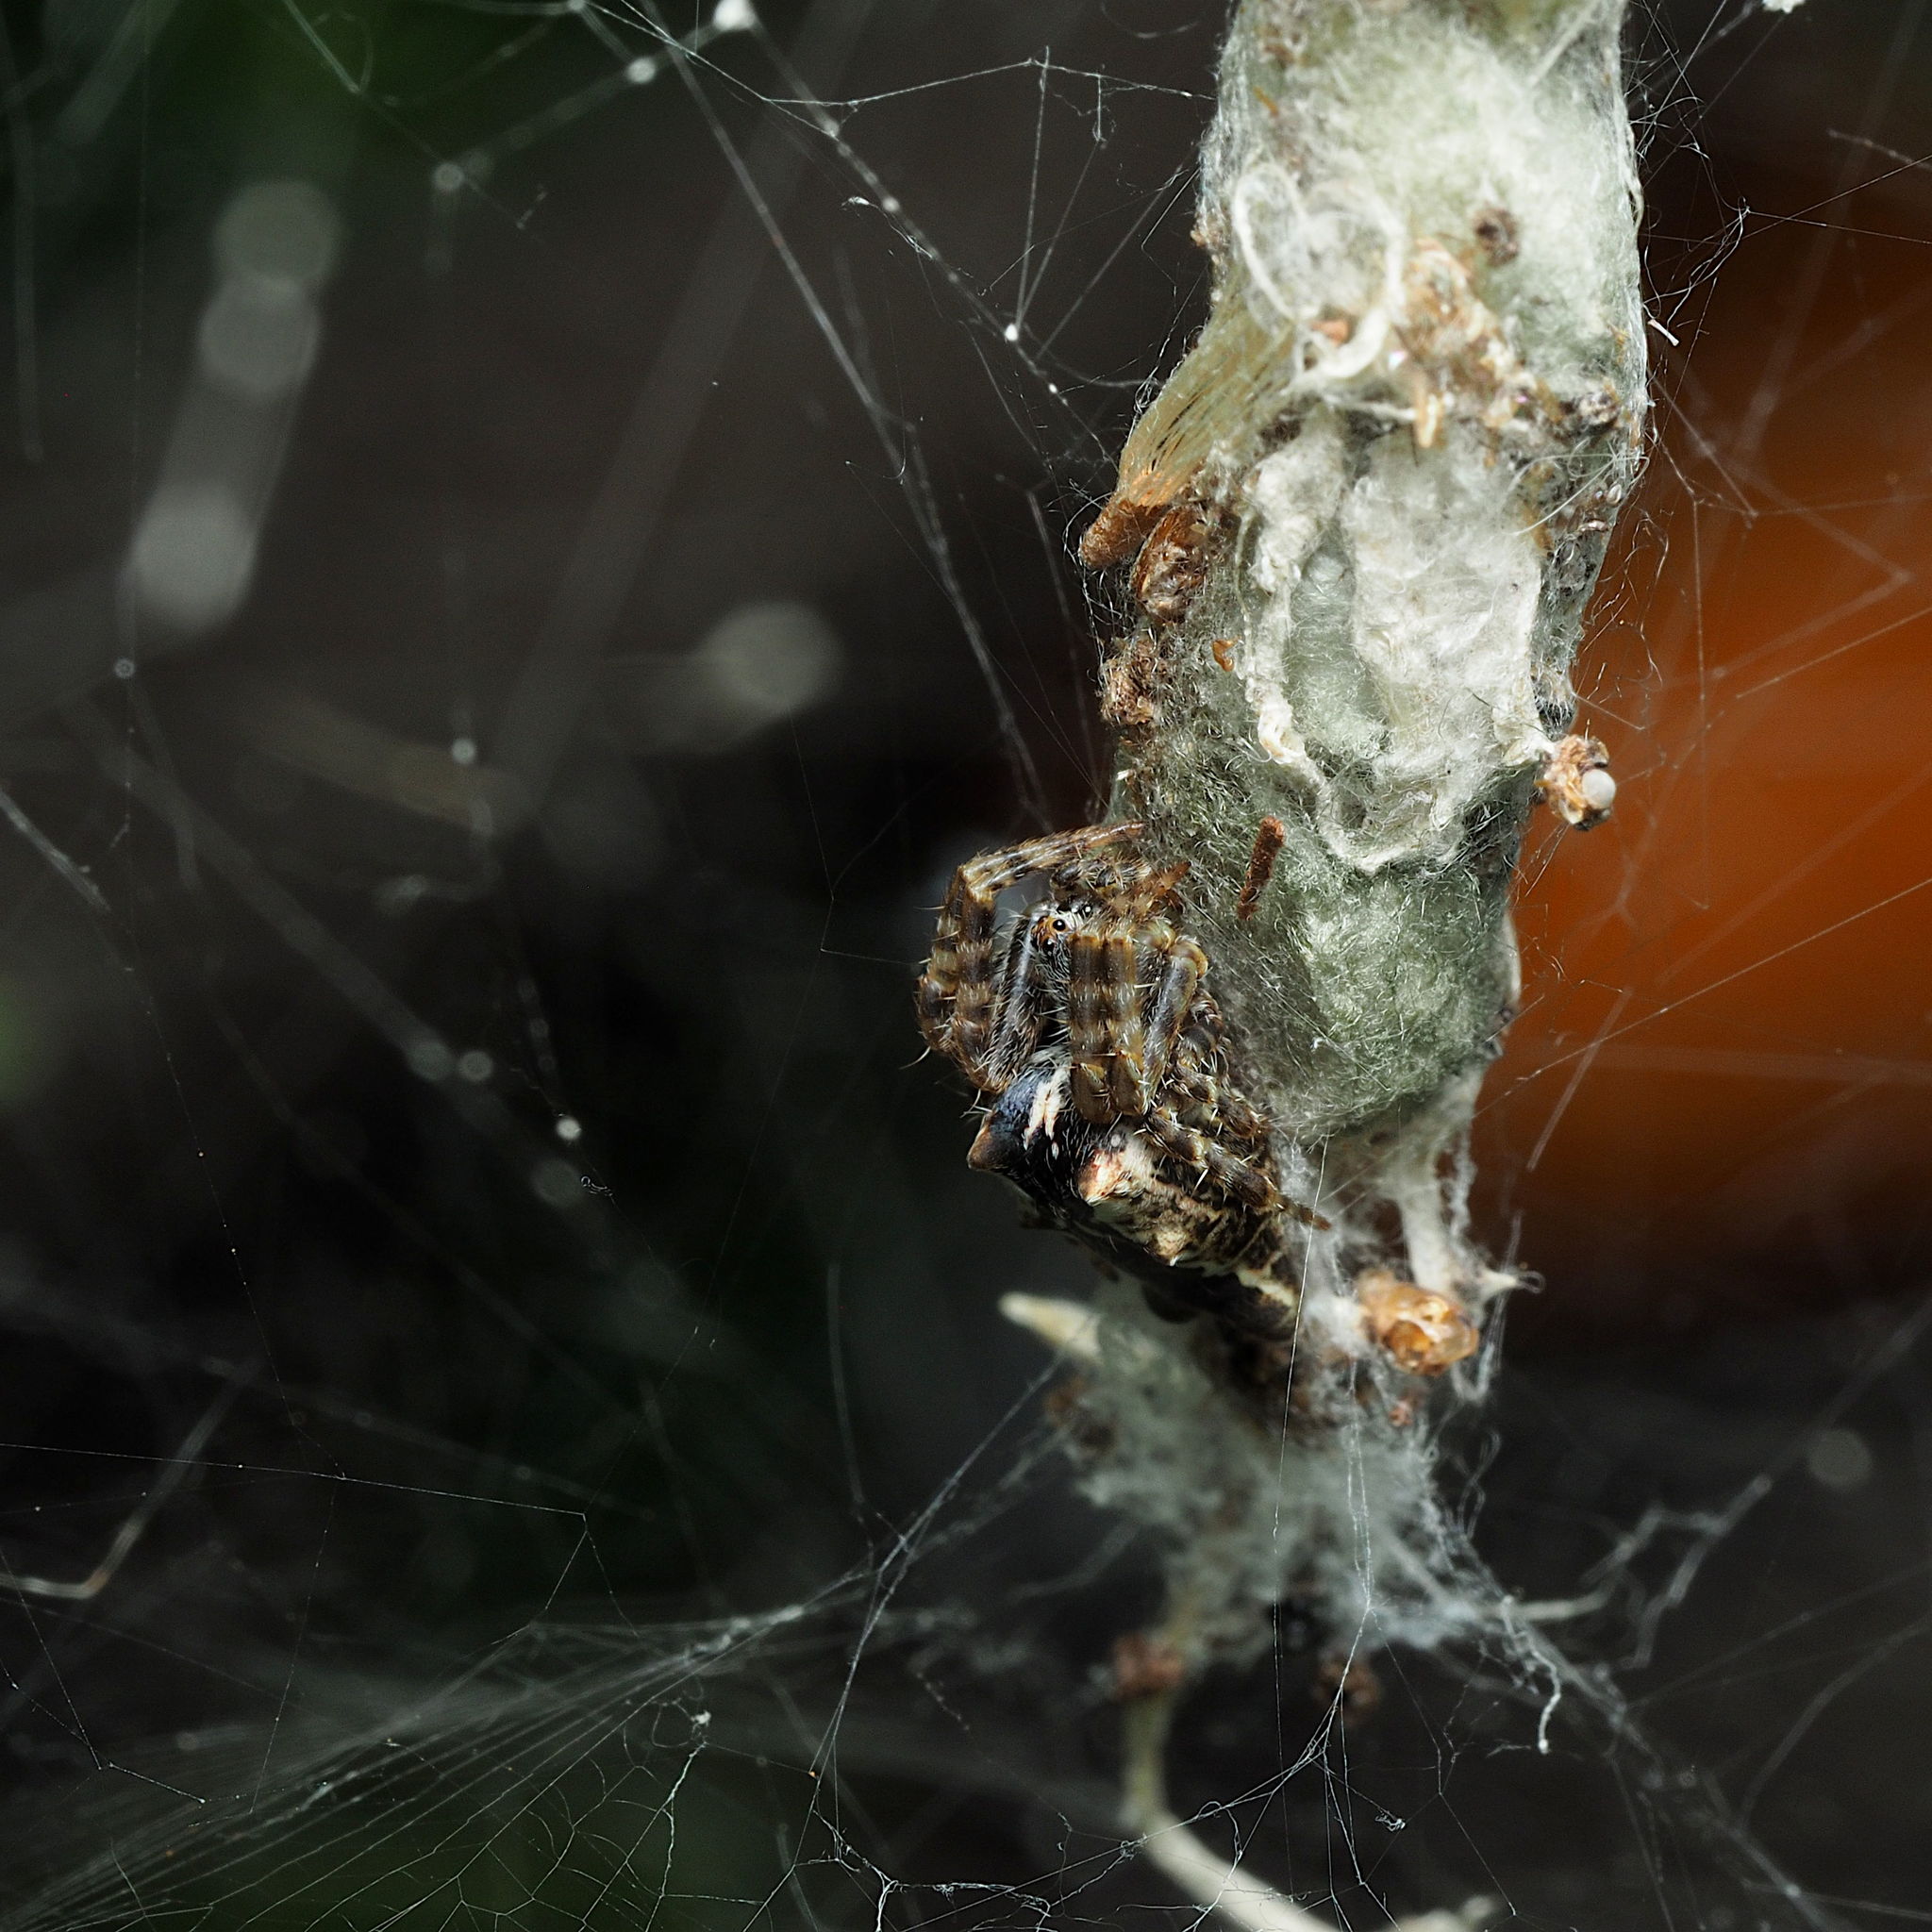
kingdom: Animalia
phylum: Arthropoda
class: Arachnida
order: Araneae
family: Araneidae
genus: Cyrtophora
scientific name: Cyrtophora citricola
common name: Orb weavers
